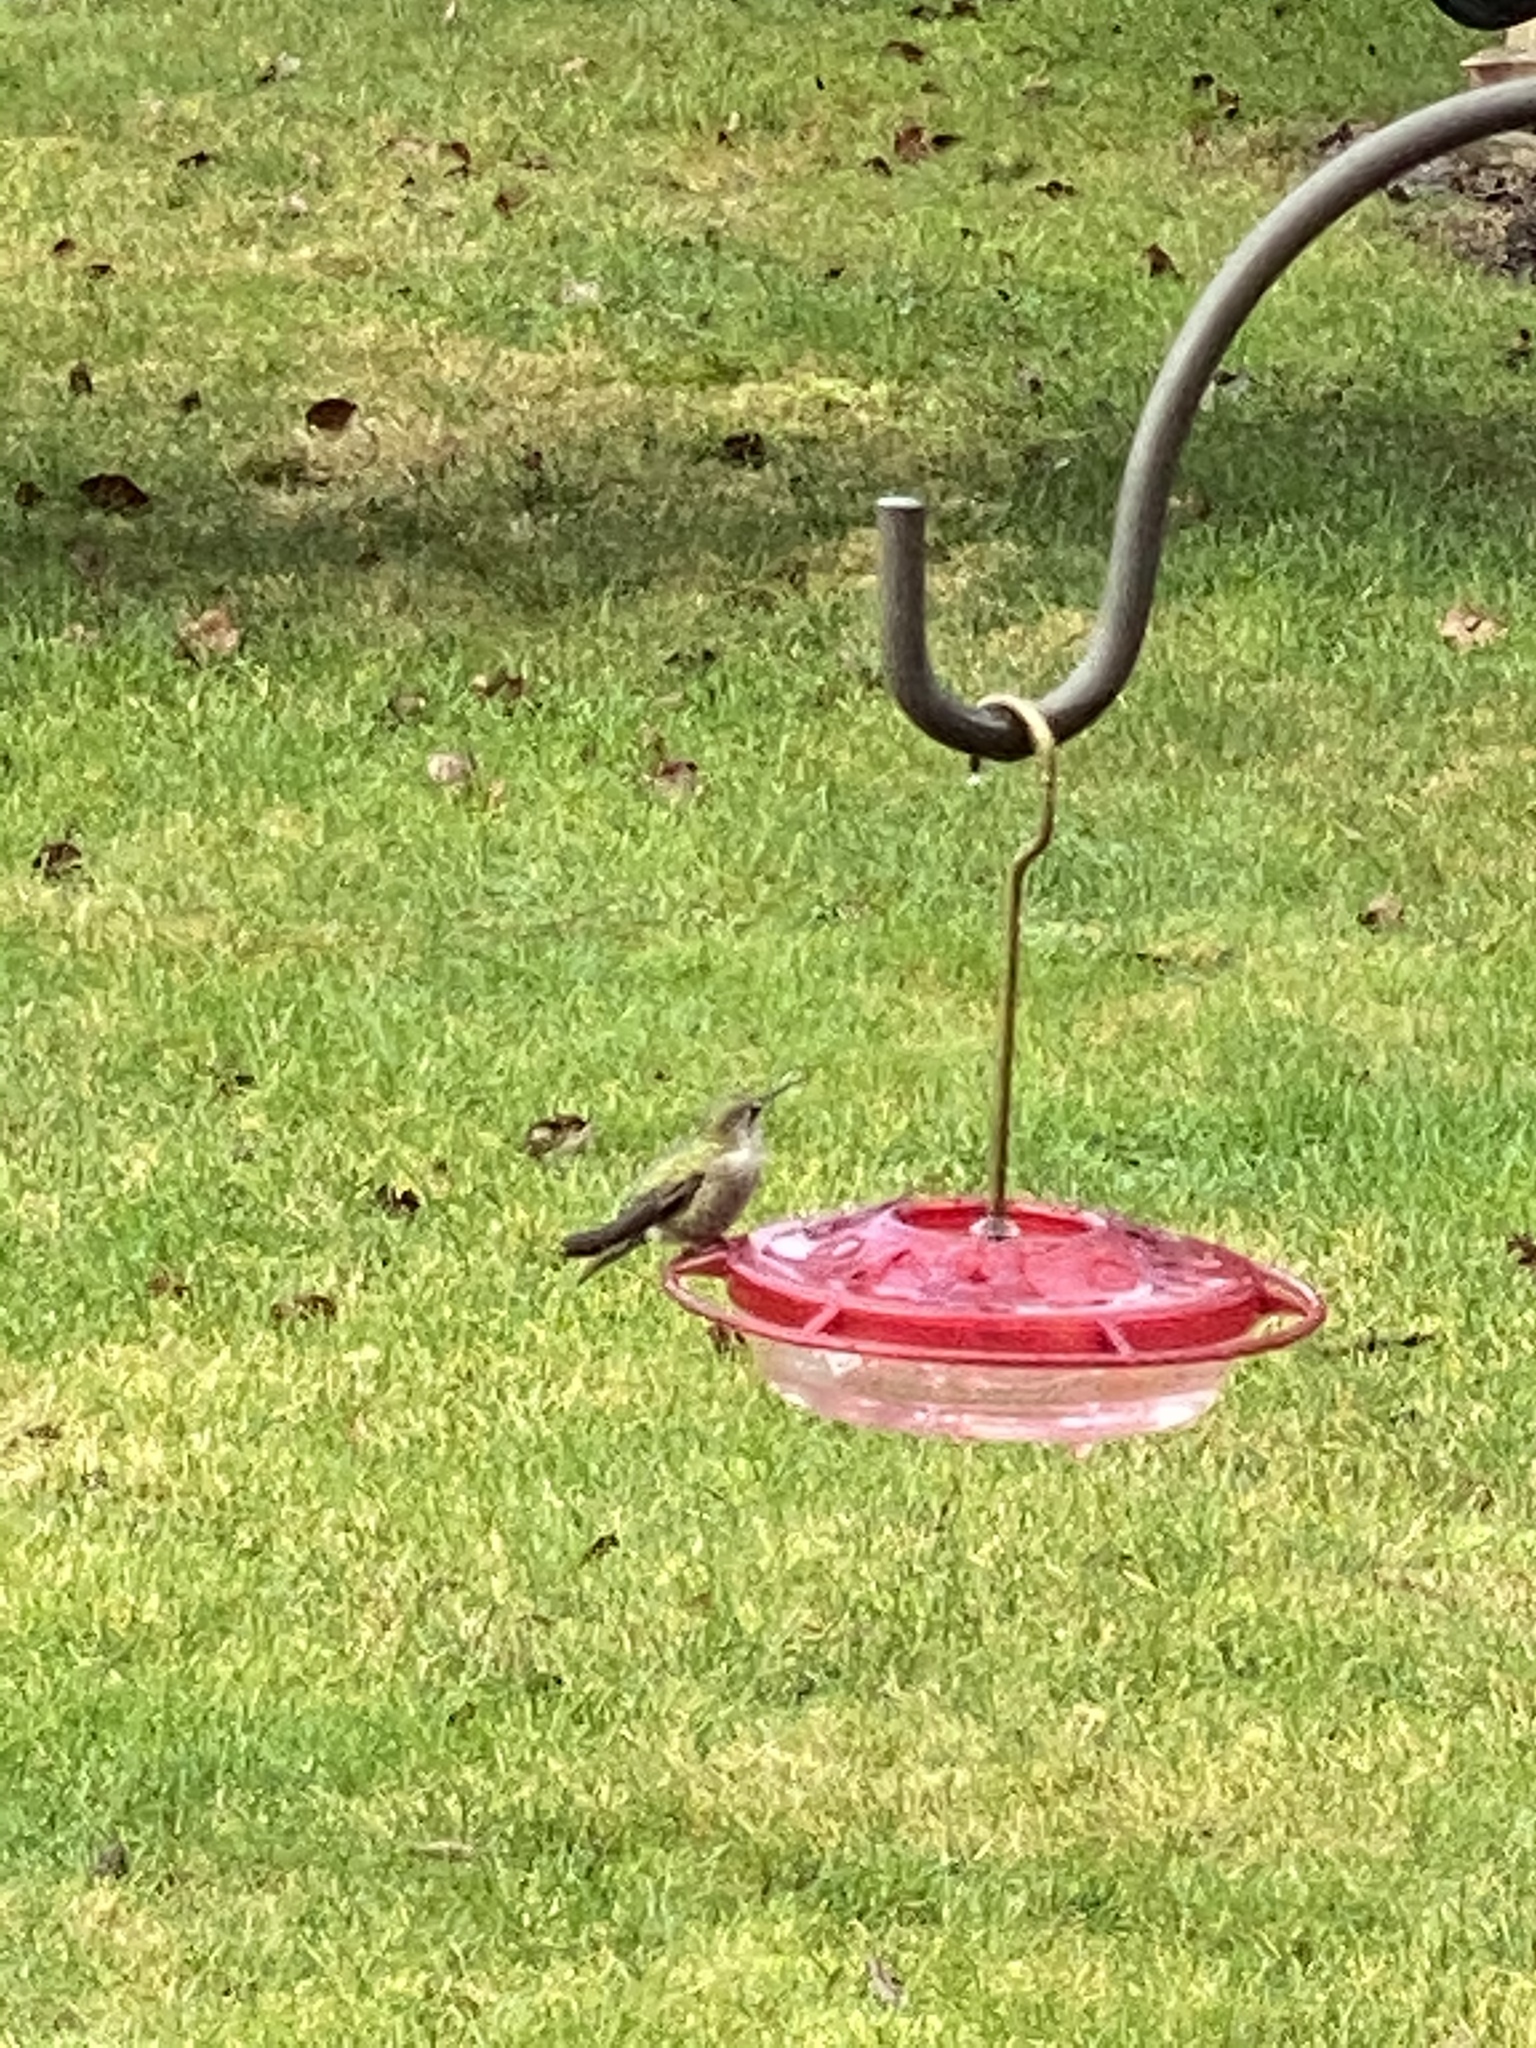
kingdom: Animalia
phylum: Chordata
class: Aves
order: Apodiformes
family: Trochilidae
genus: Calypte
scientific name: Calypte anna
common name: Anna's hummingbird
